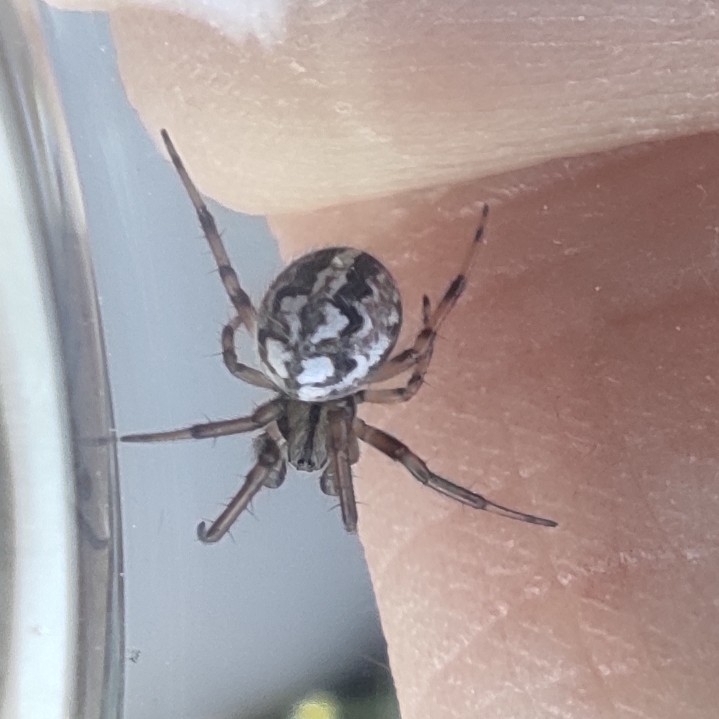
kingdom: Animalia
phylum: Arthropoda
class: Arachnida
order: Araneae
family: Araneidae
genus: Neoscona
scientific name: Neoscona adianta
